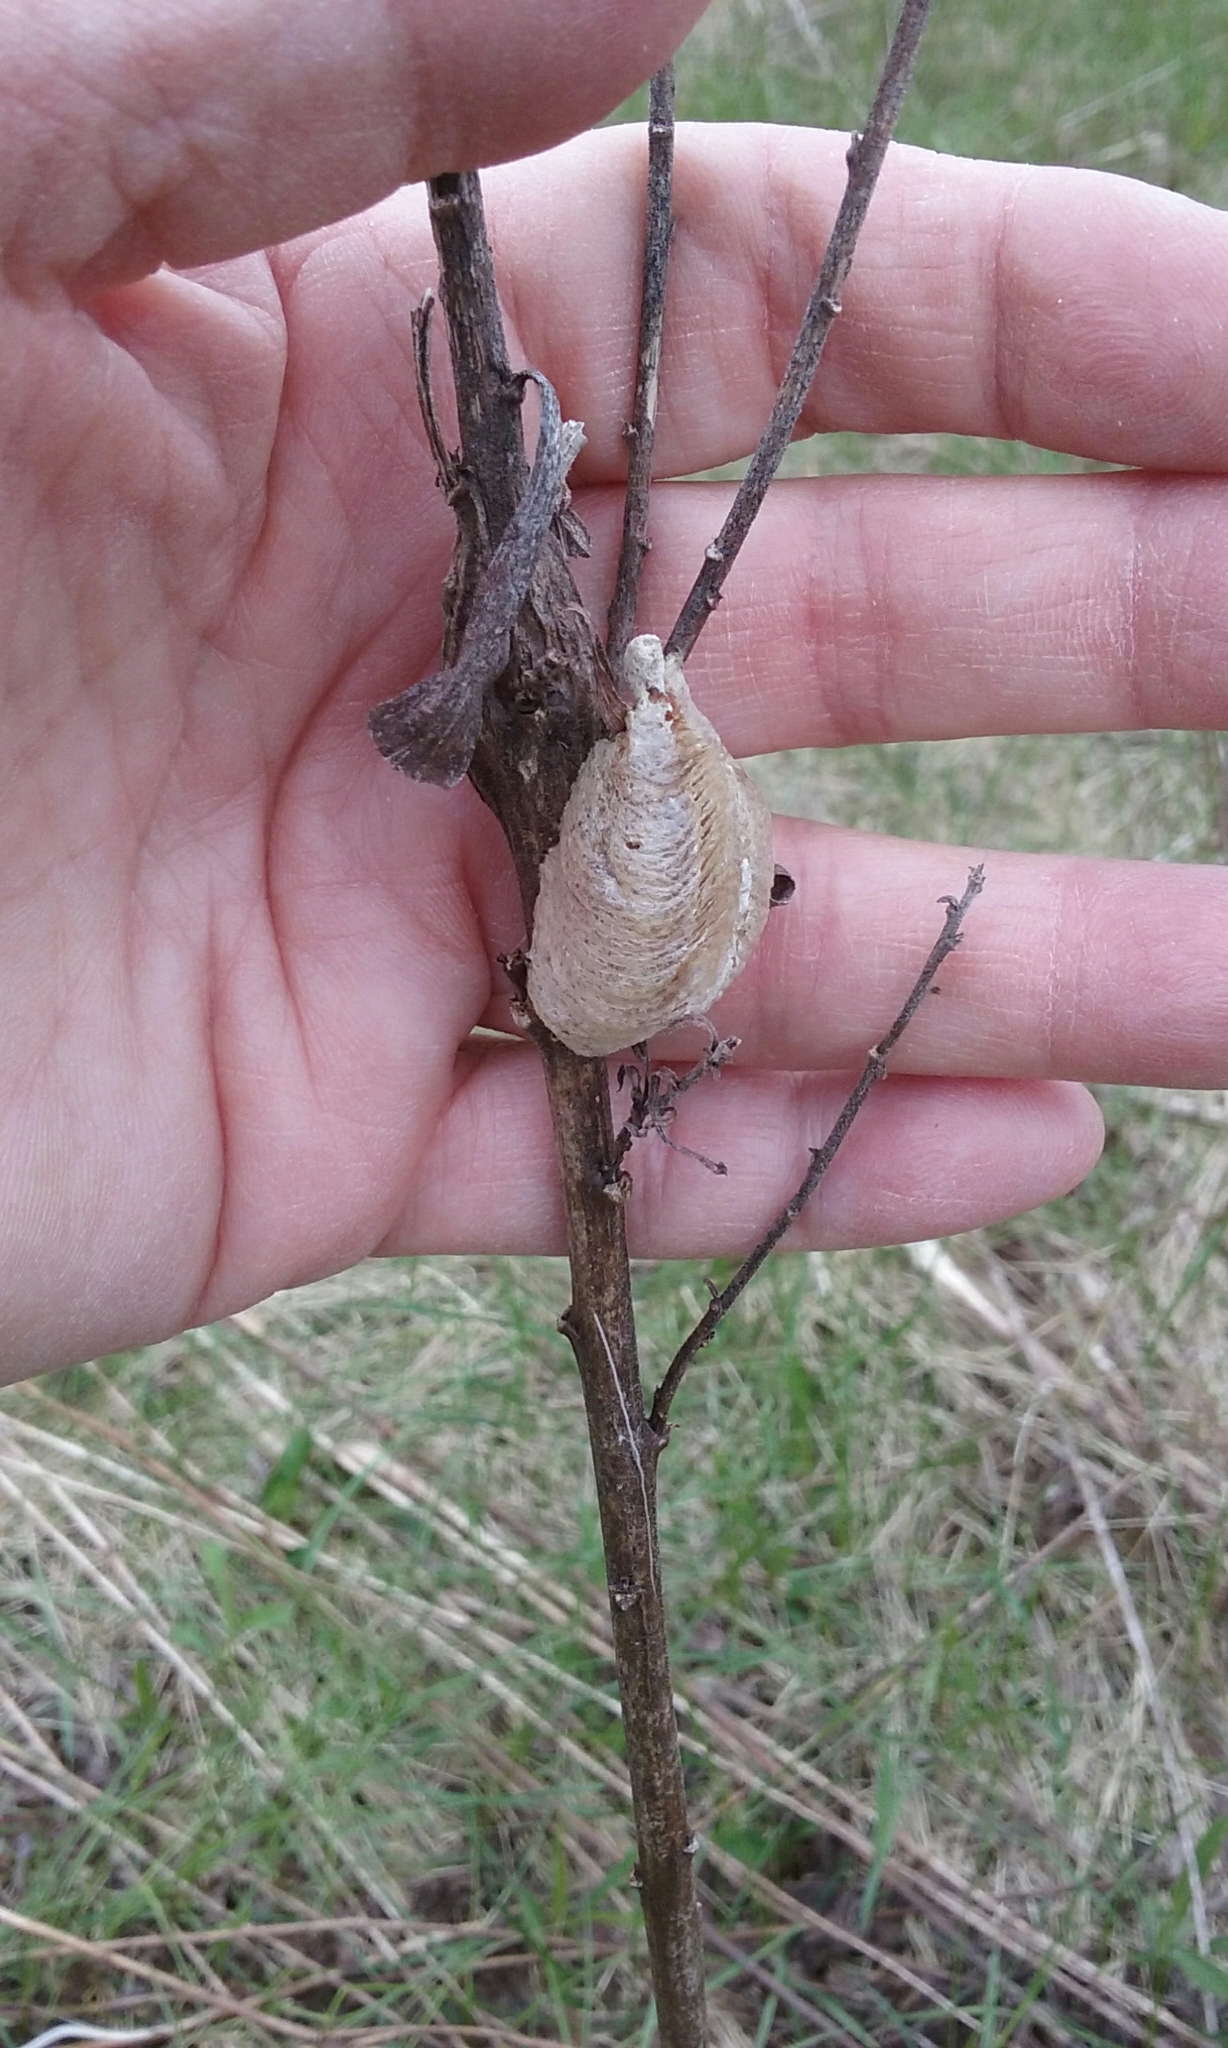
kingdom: Animalia
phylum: Arthropoda
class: Insecta
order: Mantodea
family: Mantidae
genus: Mantis
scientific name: Mantis religiosa
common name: Praying mantis
